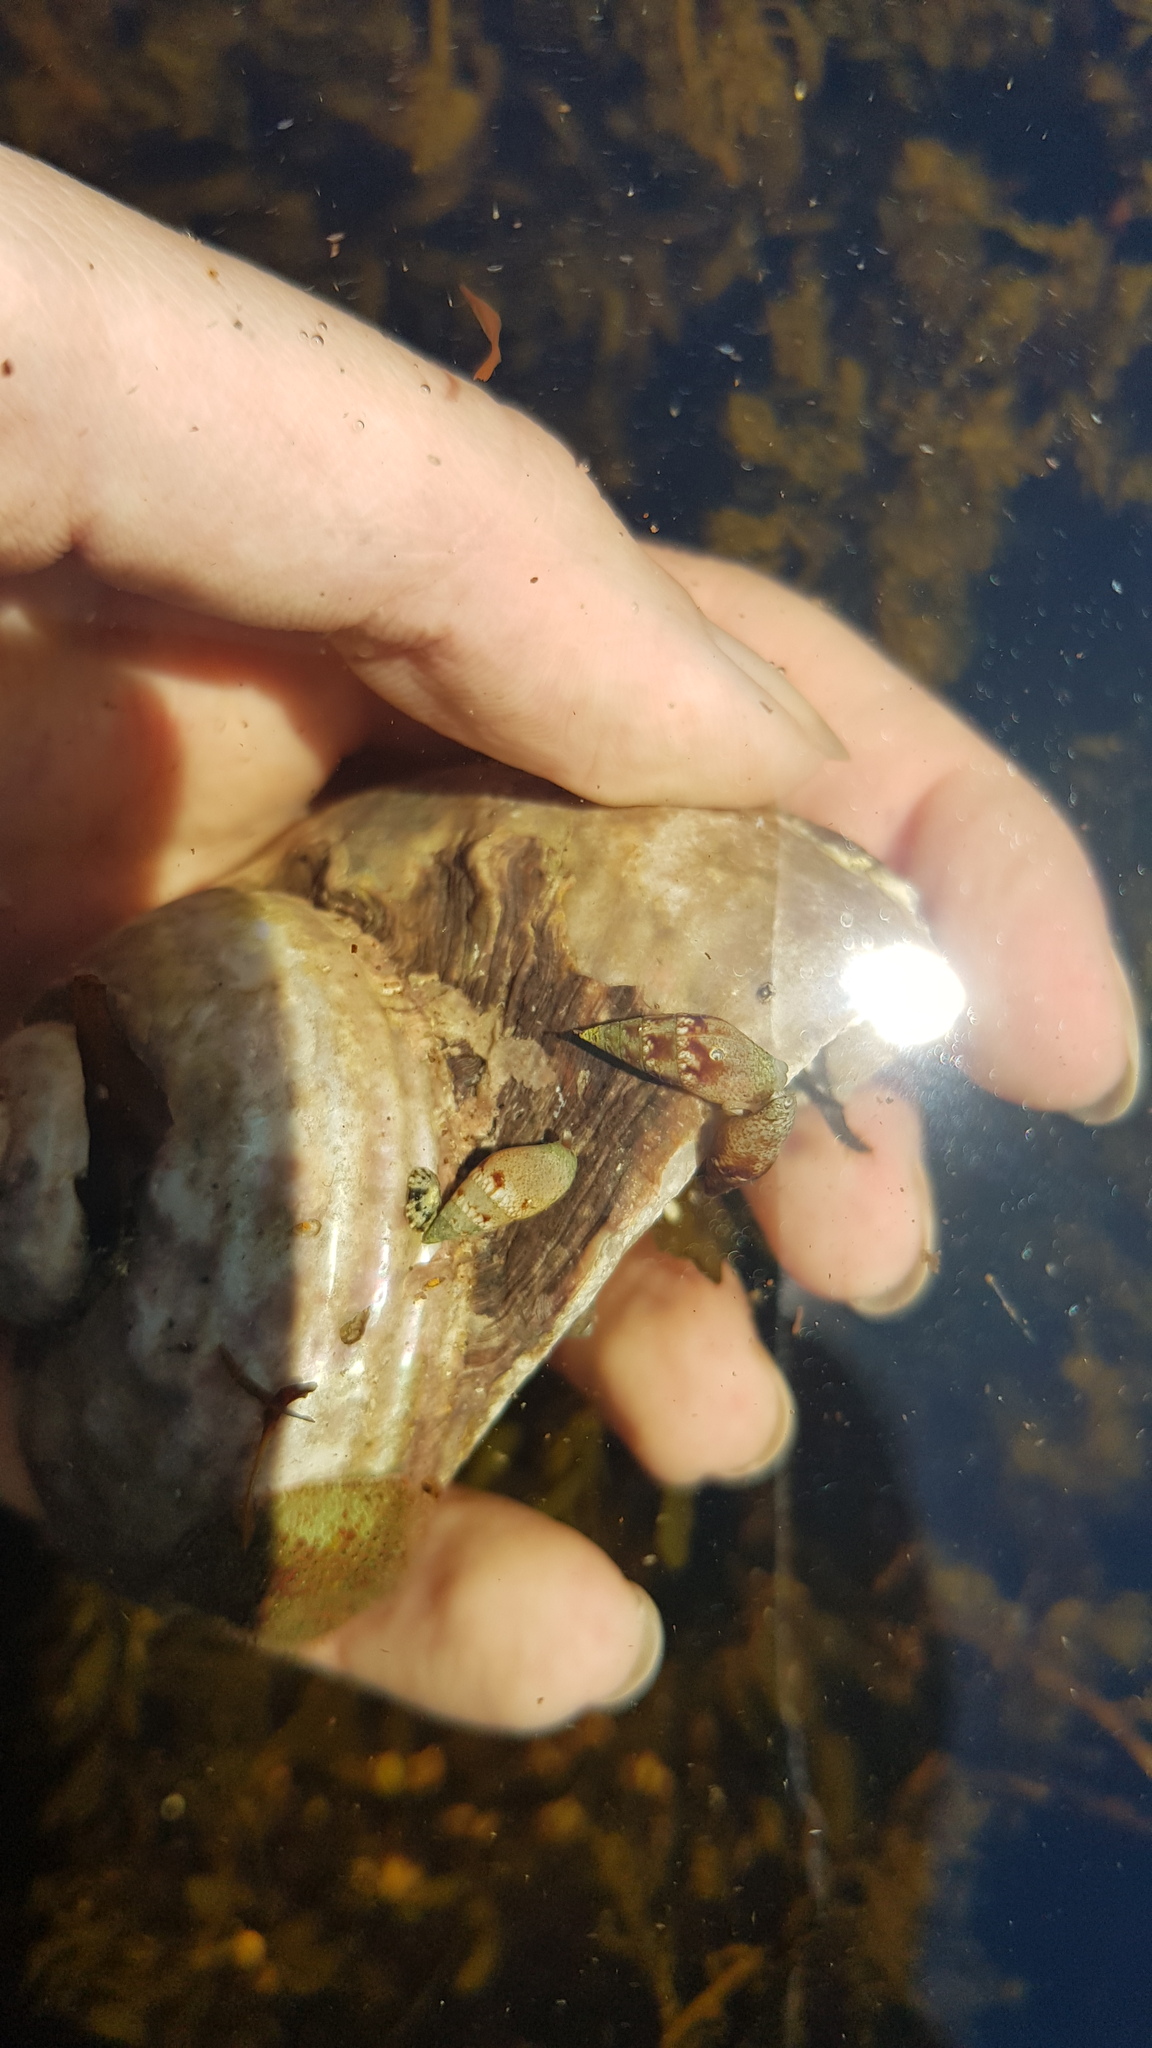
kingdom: Animalia
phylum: Mollusca
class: Gastropoda
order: Neogastropoda
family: Columbellidae
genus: Mitrella
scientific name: Mitrella tayloriana
